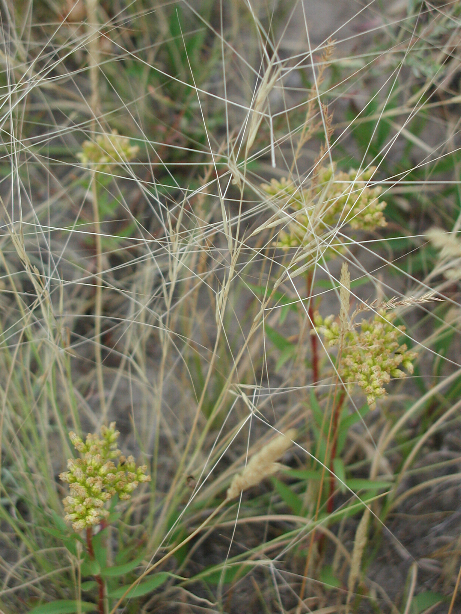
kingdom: Plantae
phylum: Tracheophyta
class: Liliopsida
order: Poales
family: Poaceae
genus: Aristida
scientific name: Aristida longiseta
